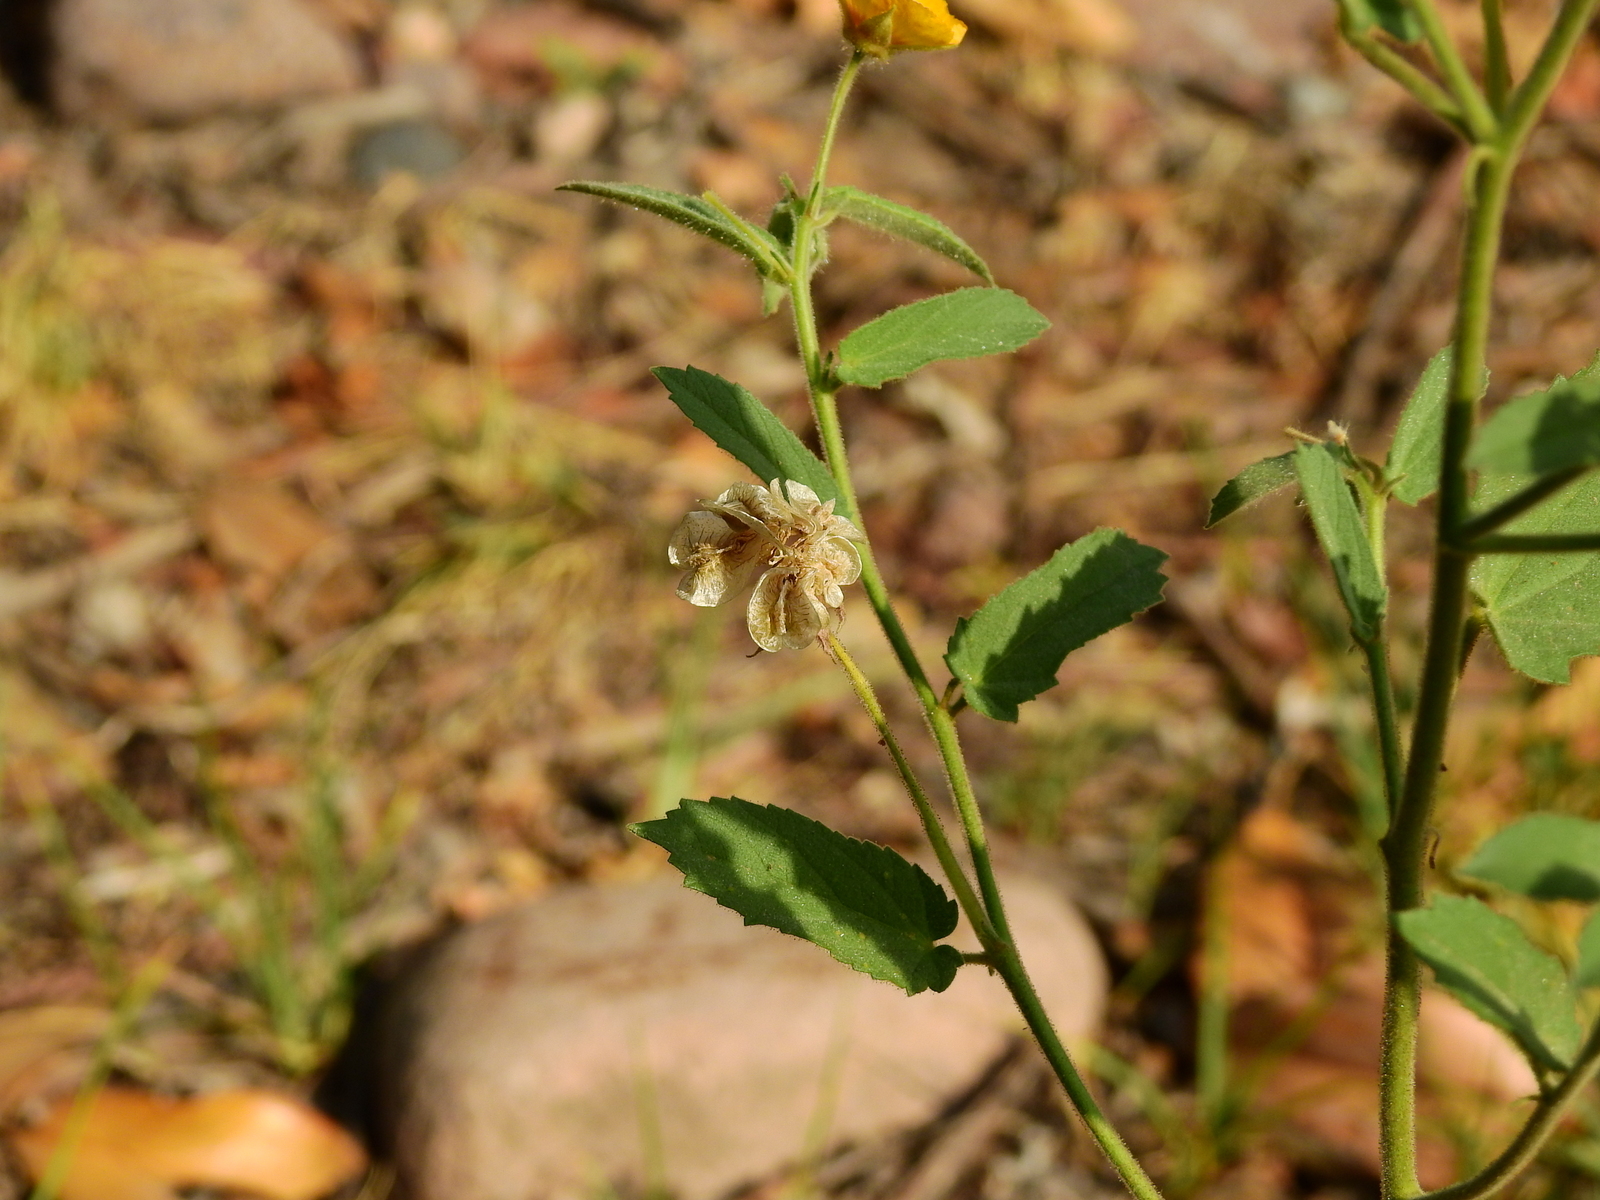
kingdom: Plantae
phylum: Tracheophyta
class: Magnoliopsida
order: Malvales
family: Malvaceae
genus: Gaya
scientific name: Gaya parviflora
